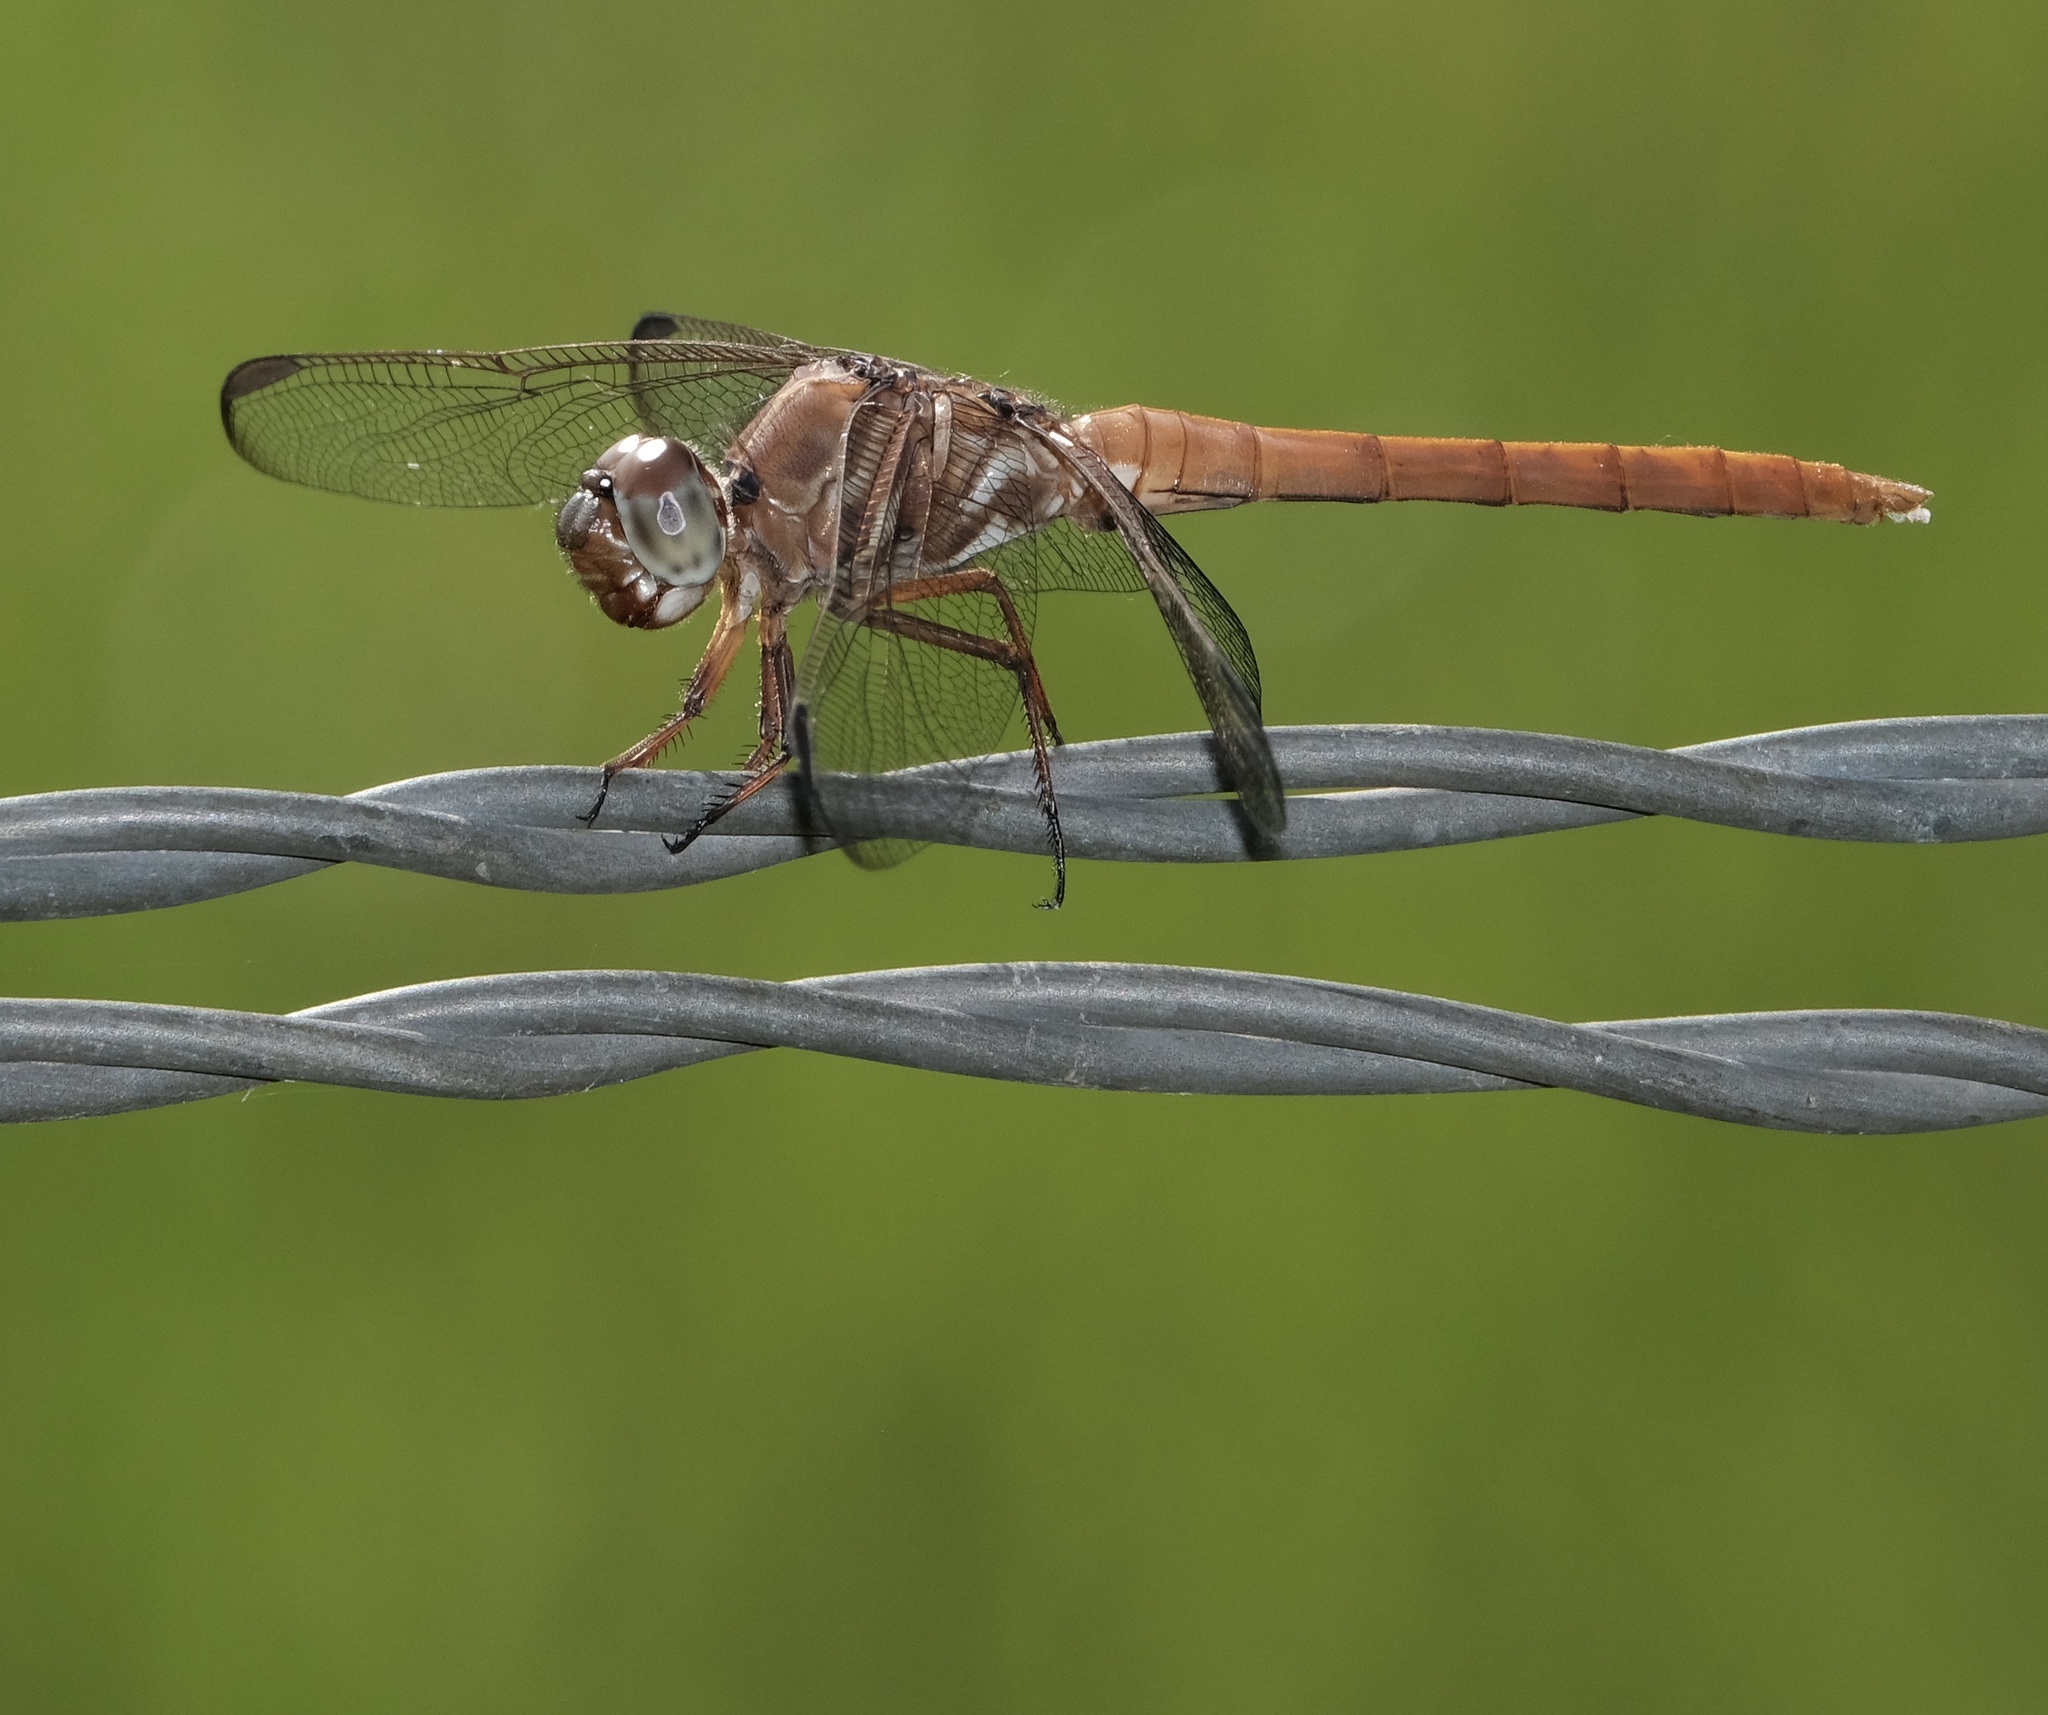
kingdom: Animalia
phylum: Arthropoda
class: Insecta
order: Odonata
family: Libellulidae
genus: Orthemis
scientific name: Orthemis ferruginea
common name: Roseate skimmer
